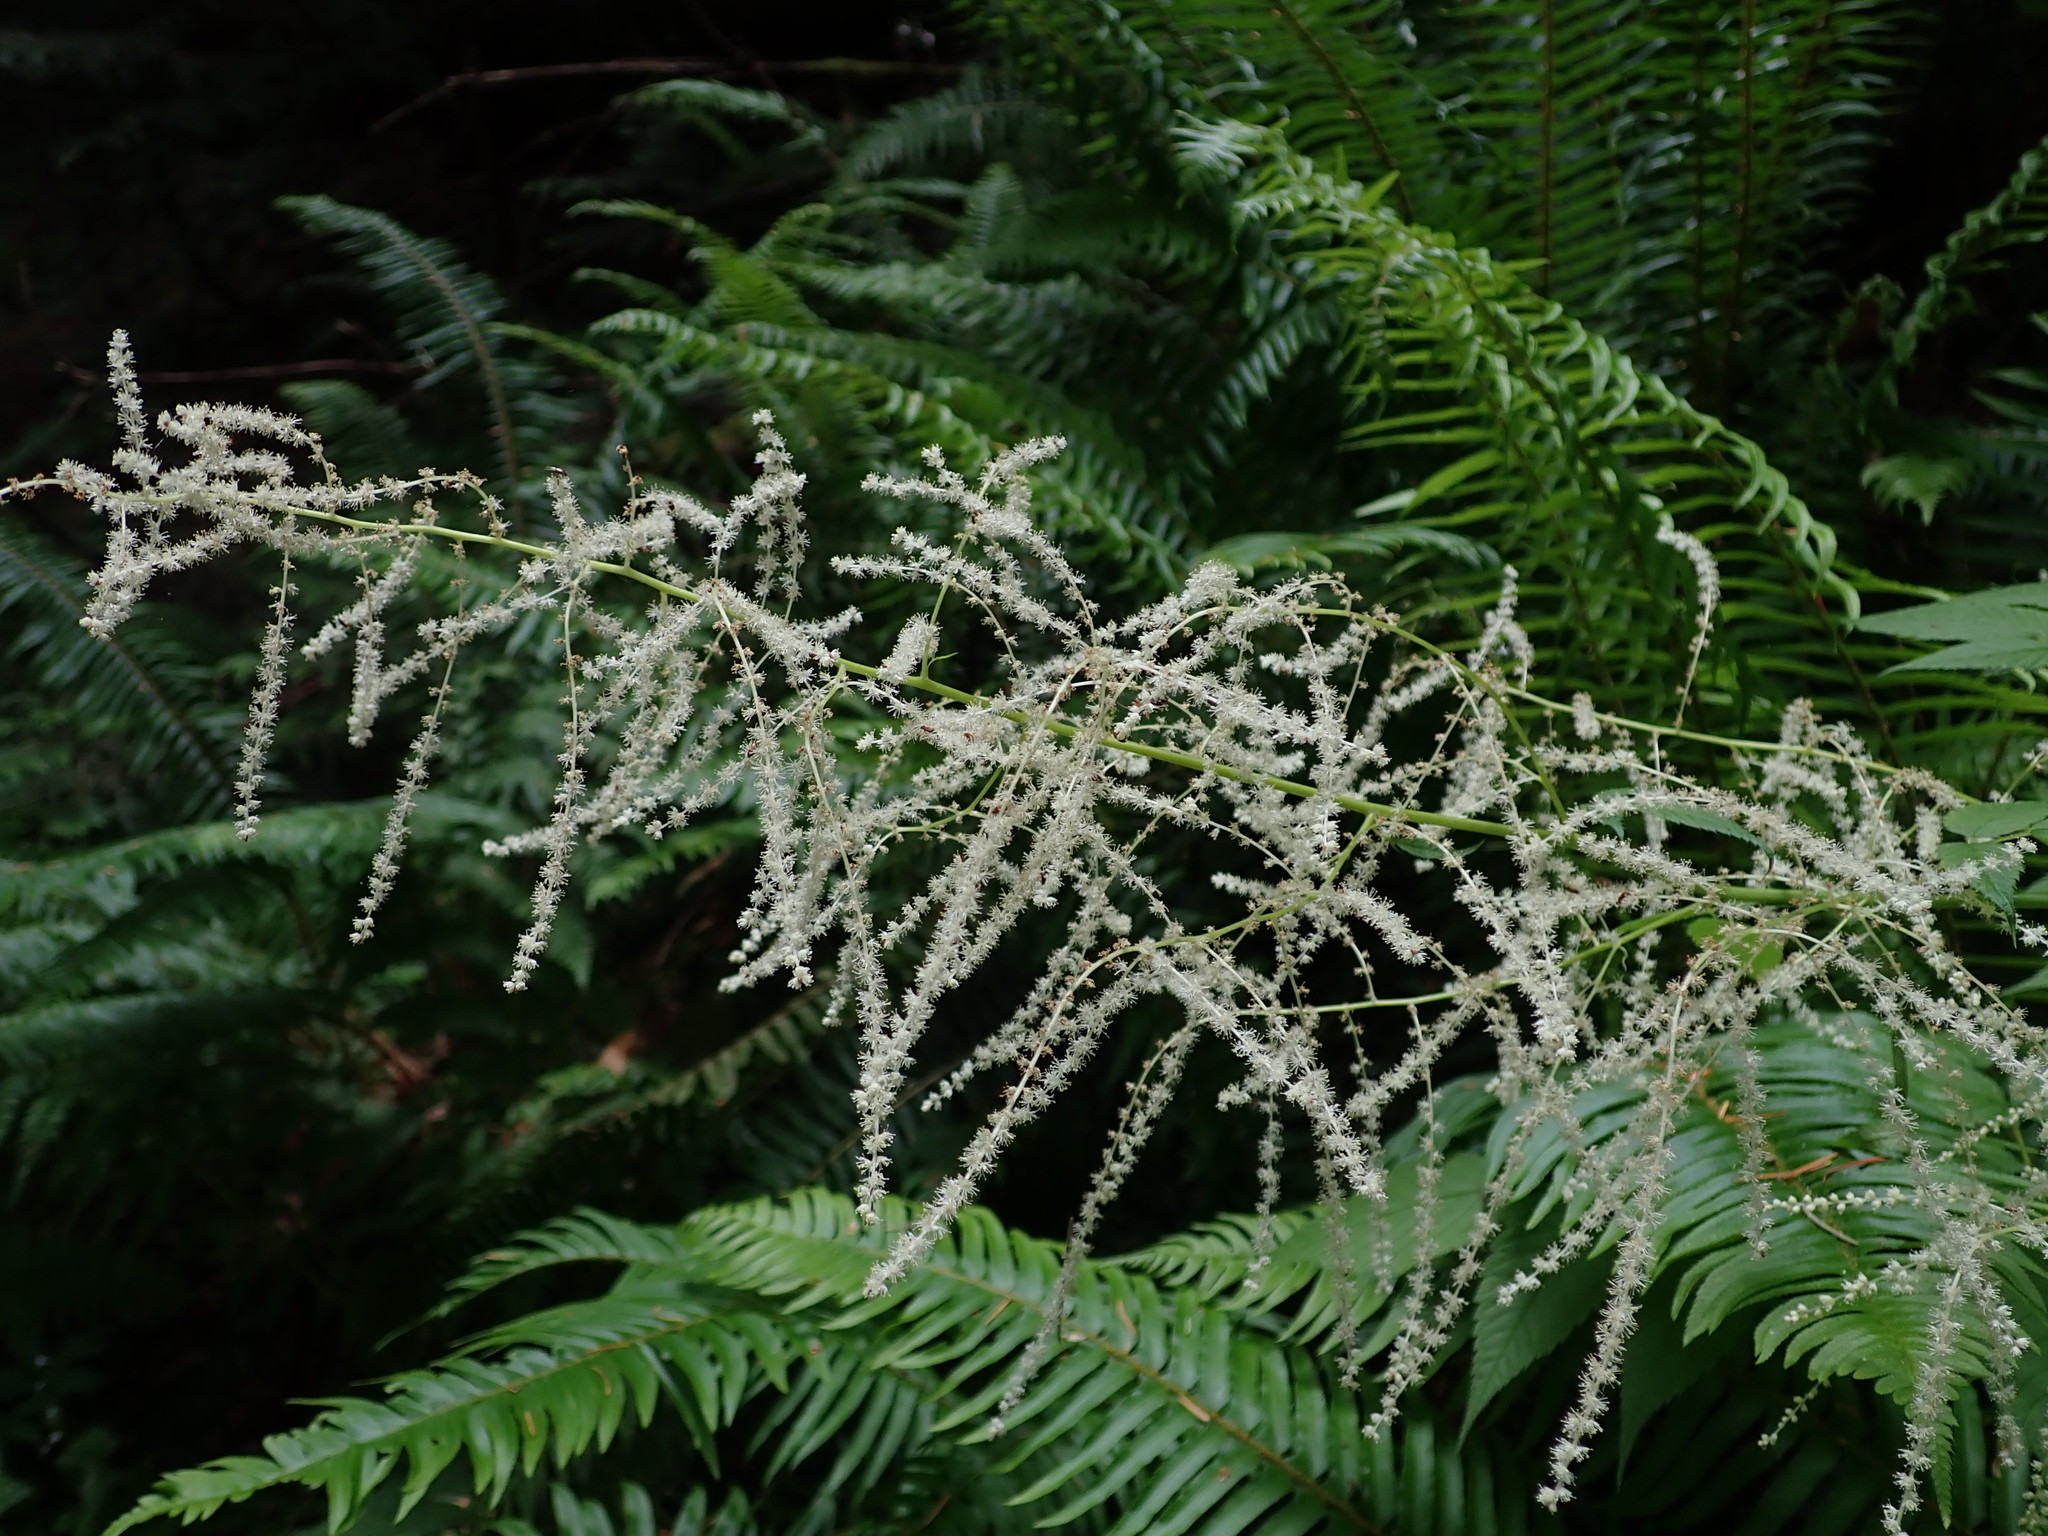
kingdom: Plantae
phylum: Tracheophyta
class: Magnoliopsida
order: Rosales
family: Rosaceae
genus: Aruncus
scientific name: Aruncus dioicus
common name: Buck's-beard
